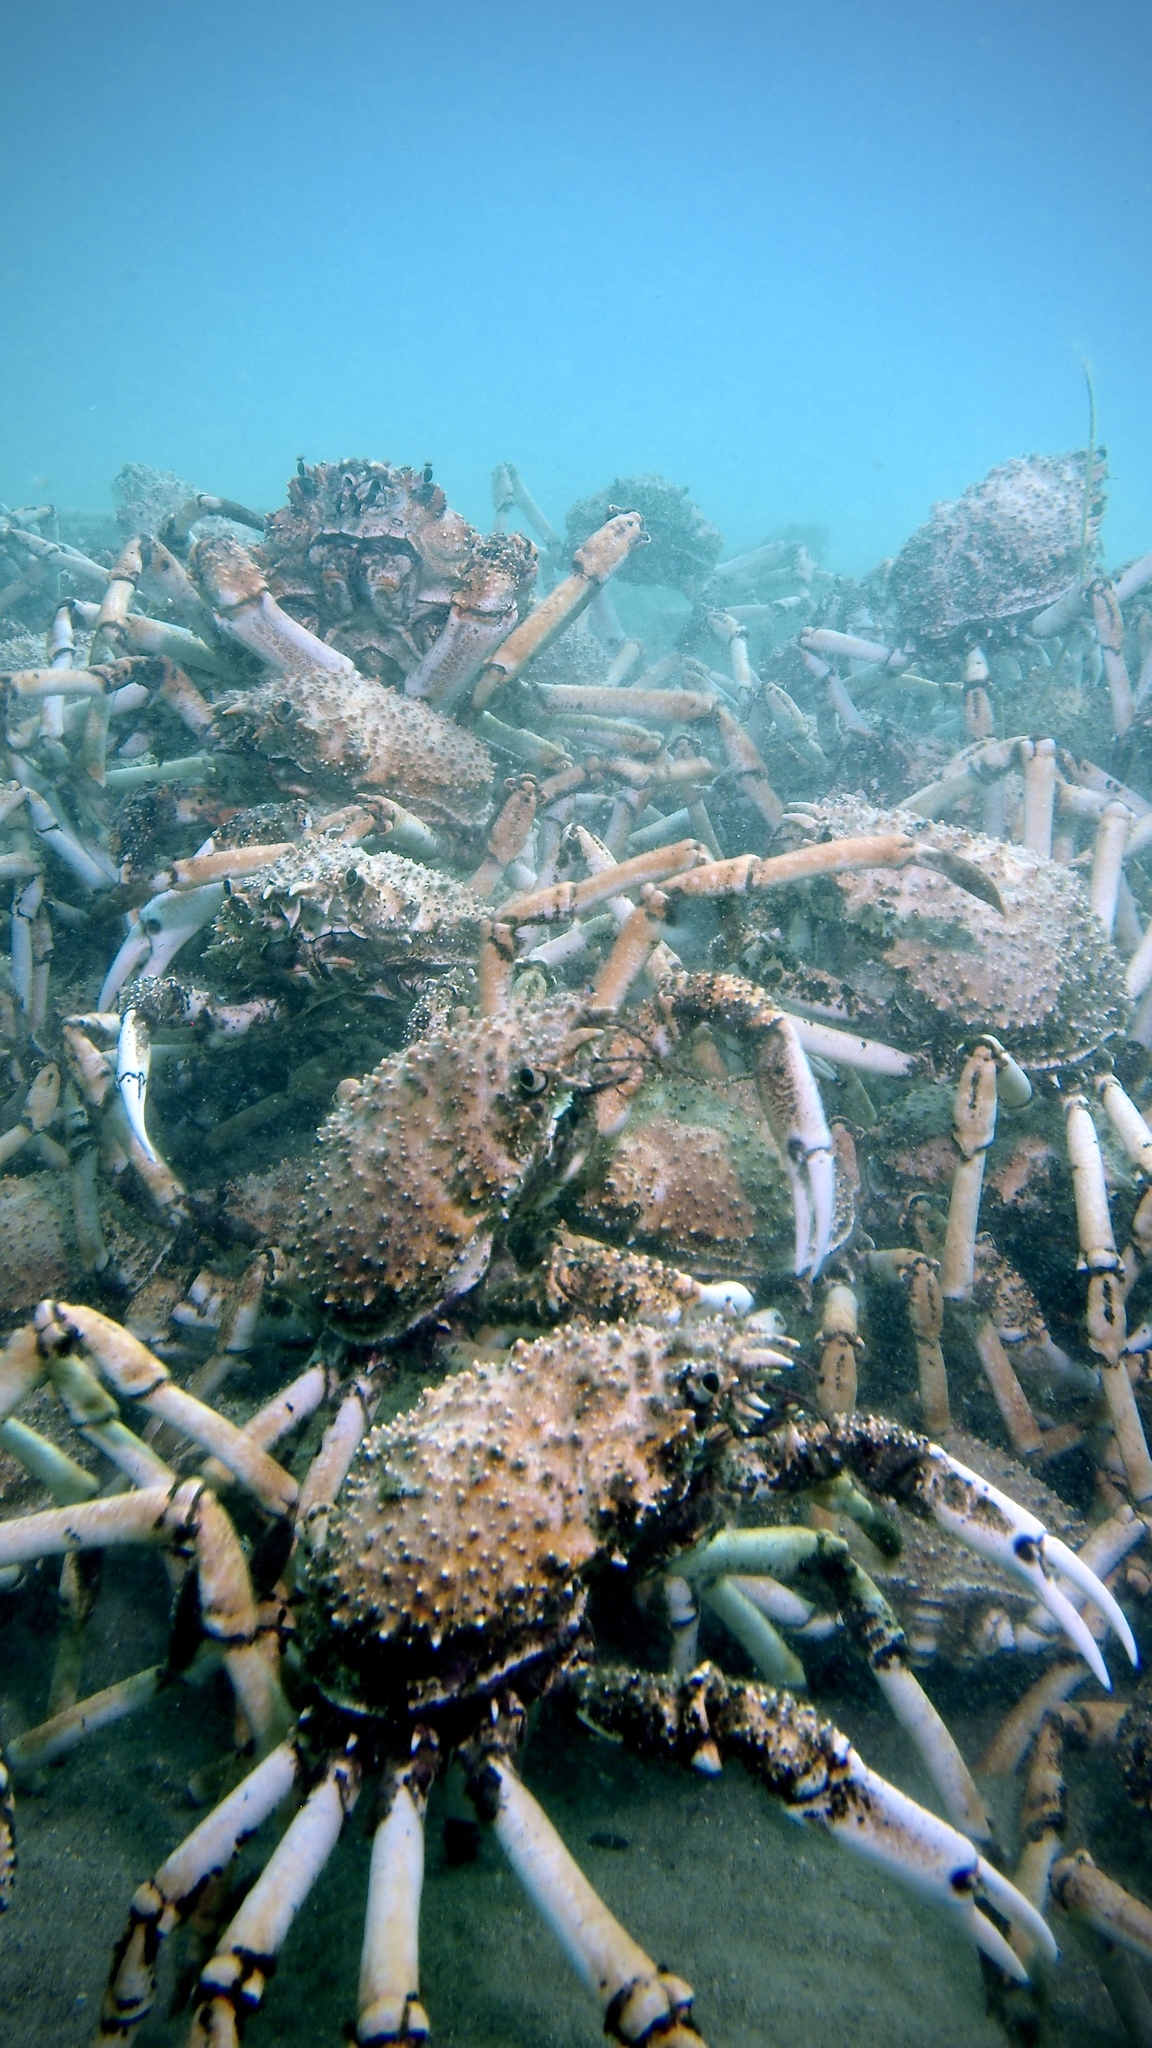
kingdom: Animalia
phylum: Arthropoda
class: Malacostraca
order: Decapoda
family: Majidae
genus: Leptomithrax
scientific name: Leptomithrax gaimardii
